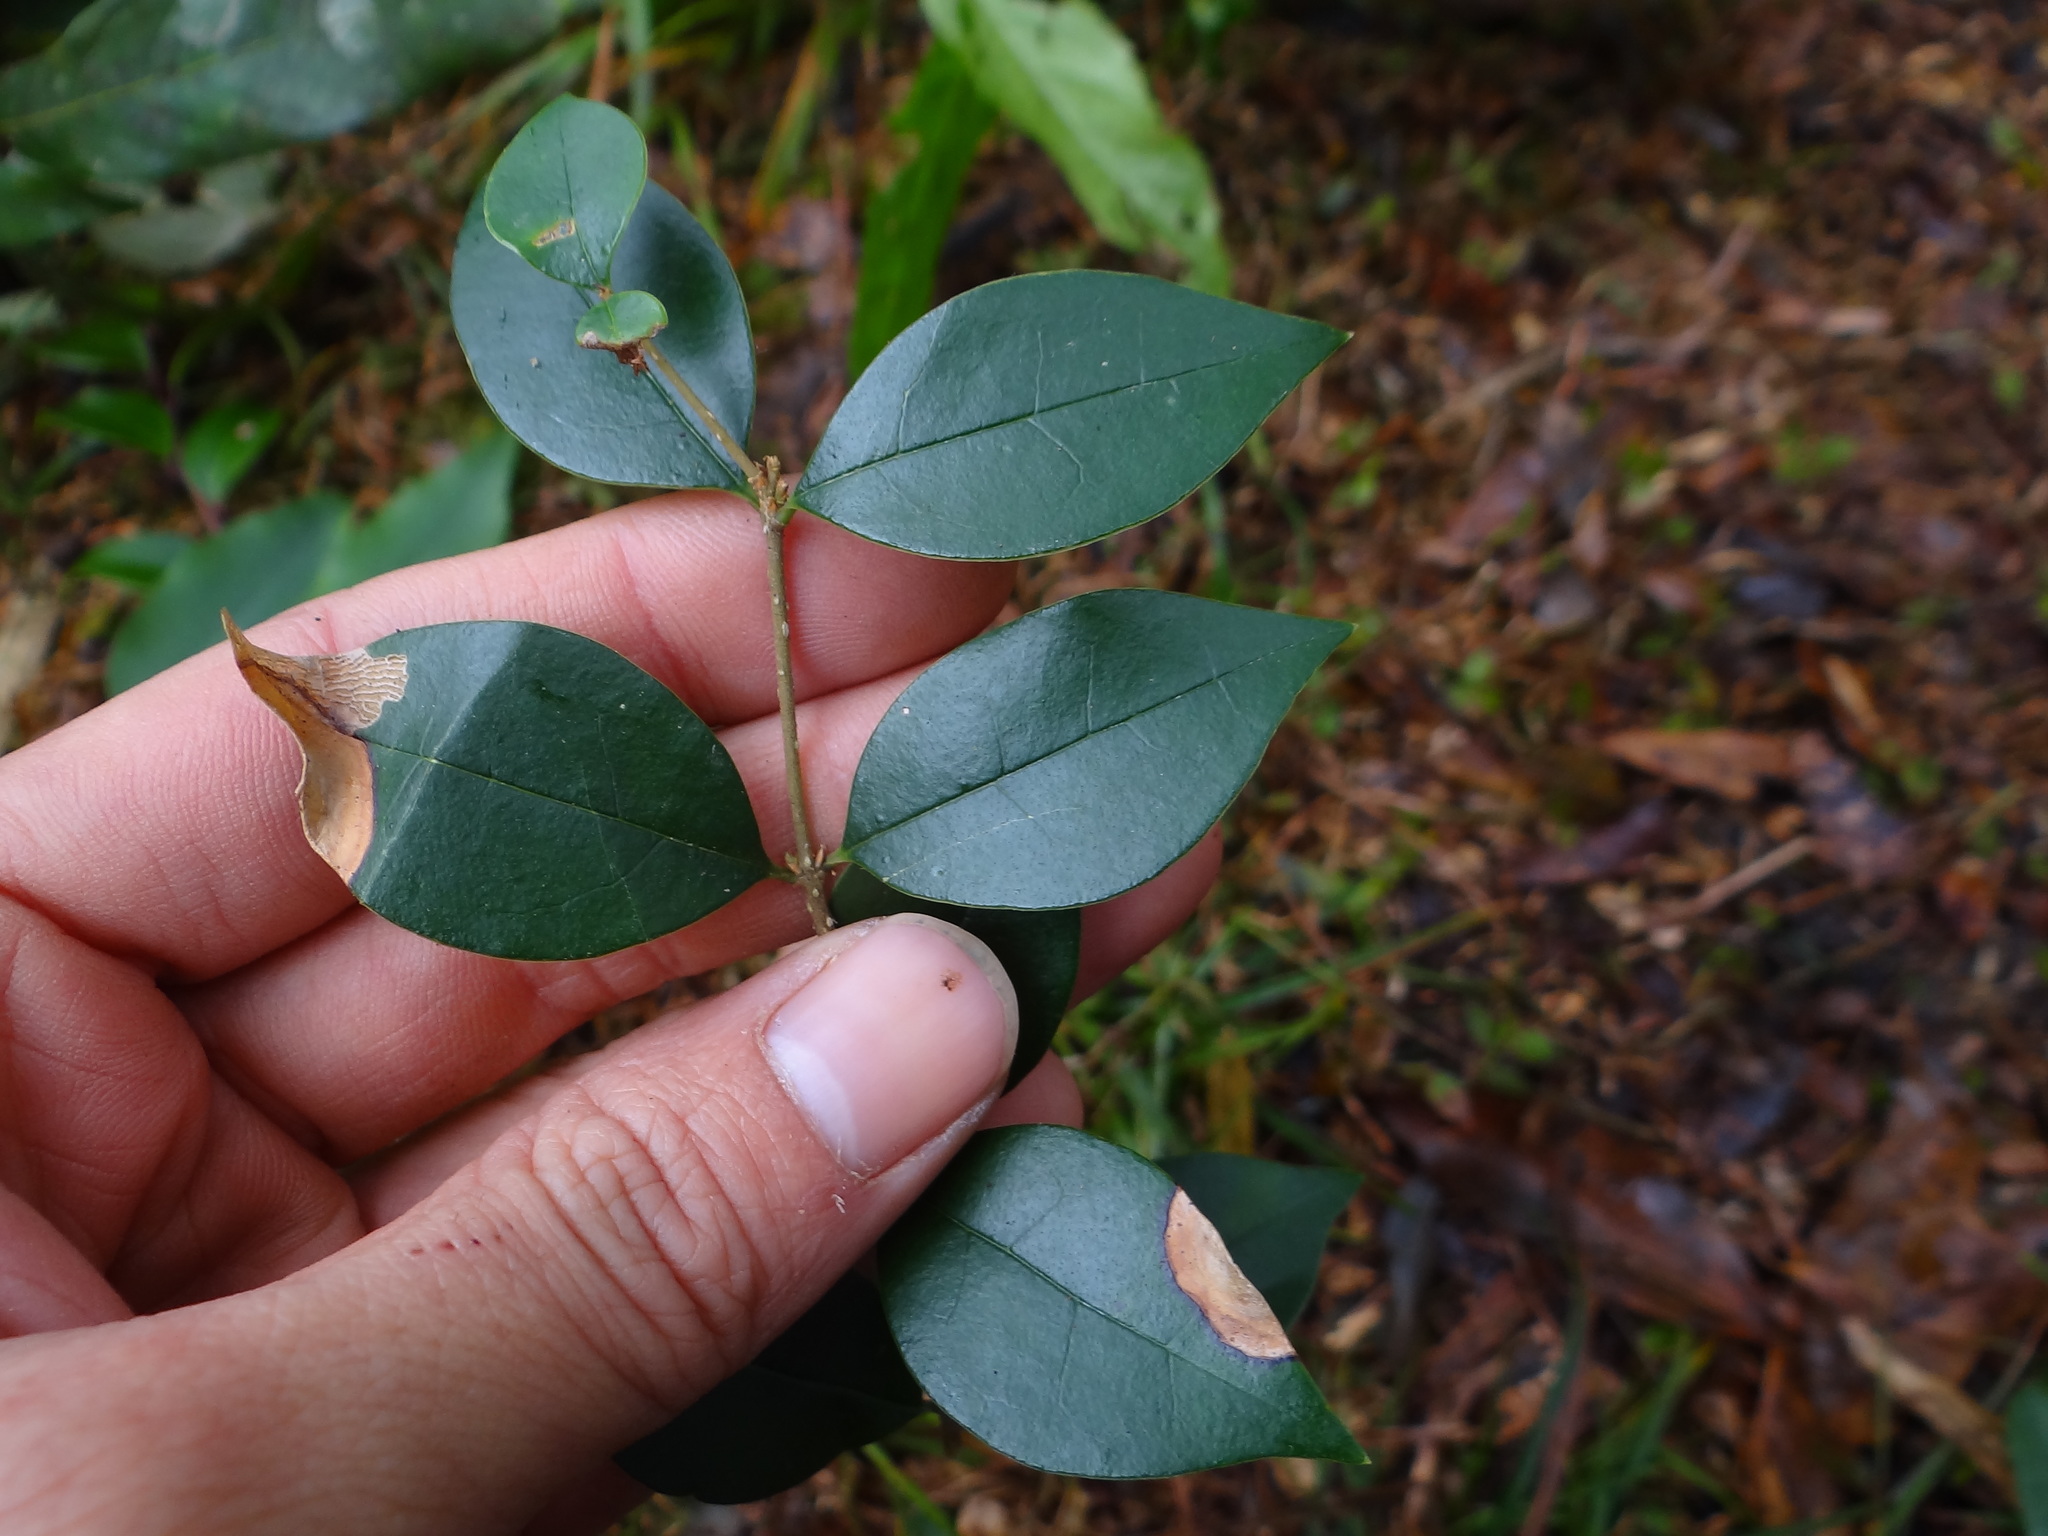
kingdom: Plantae
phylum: Tracheophyta
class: Magnoliopsida
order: Lamiales
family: Oleaceae
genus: Ligustrum
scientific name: Ligustrum pricei
